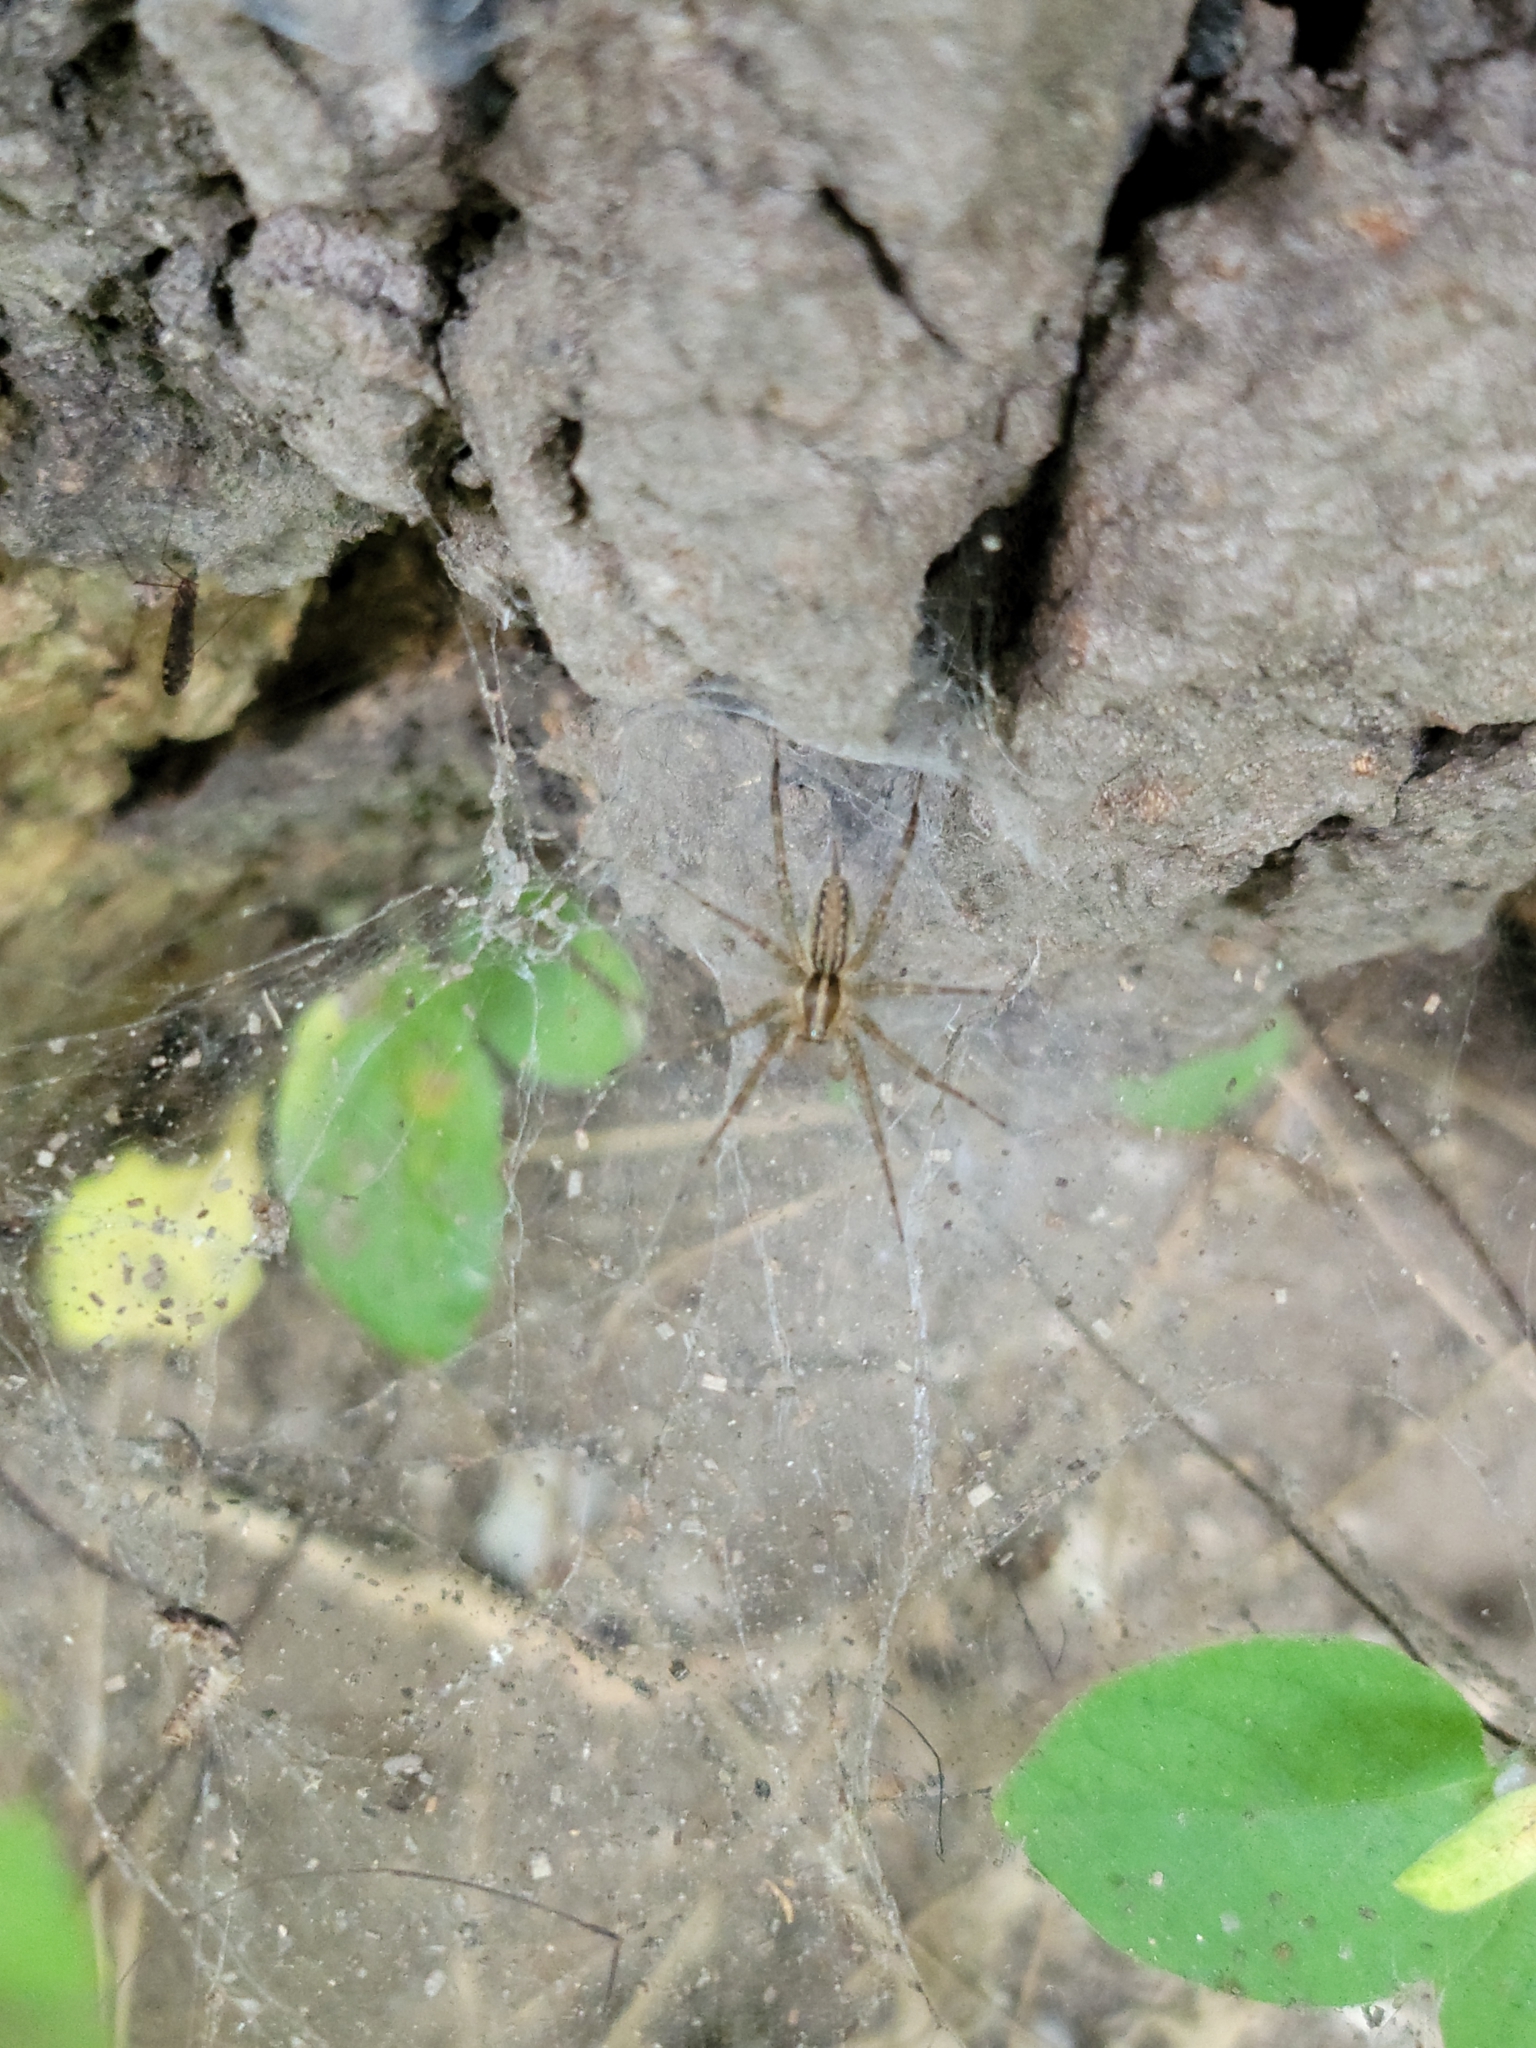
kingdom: Animalia
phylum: Arthropoda
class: Arachnida
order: Araneae
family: Agelenidae
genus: Agelenopsis
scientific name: Agelenopsis
